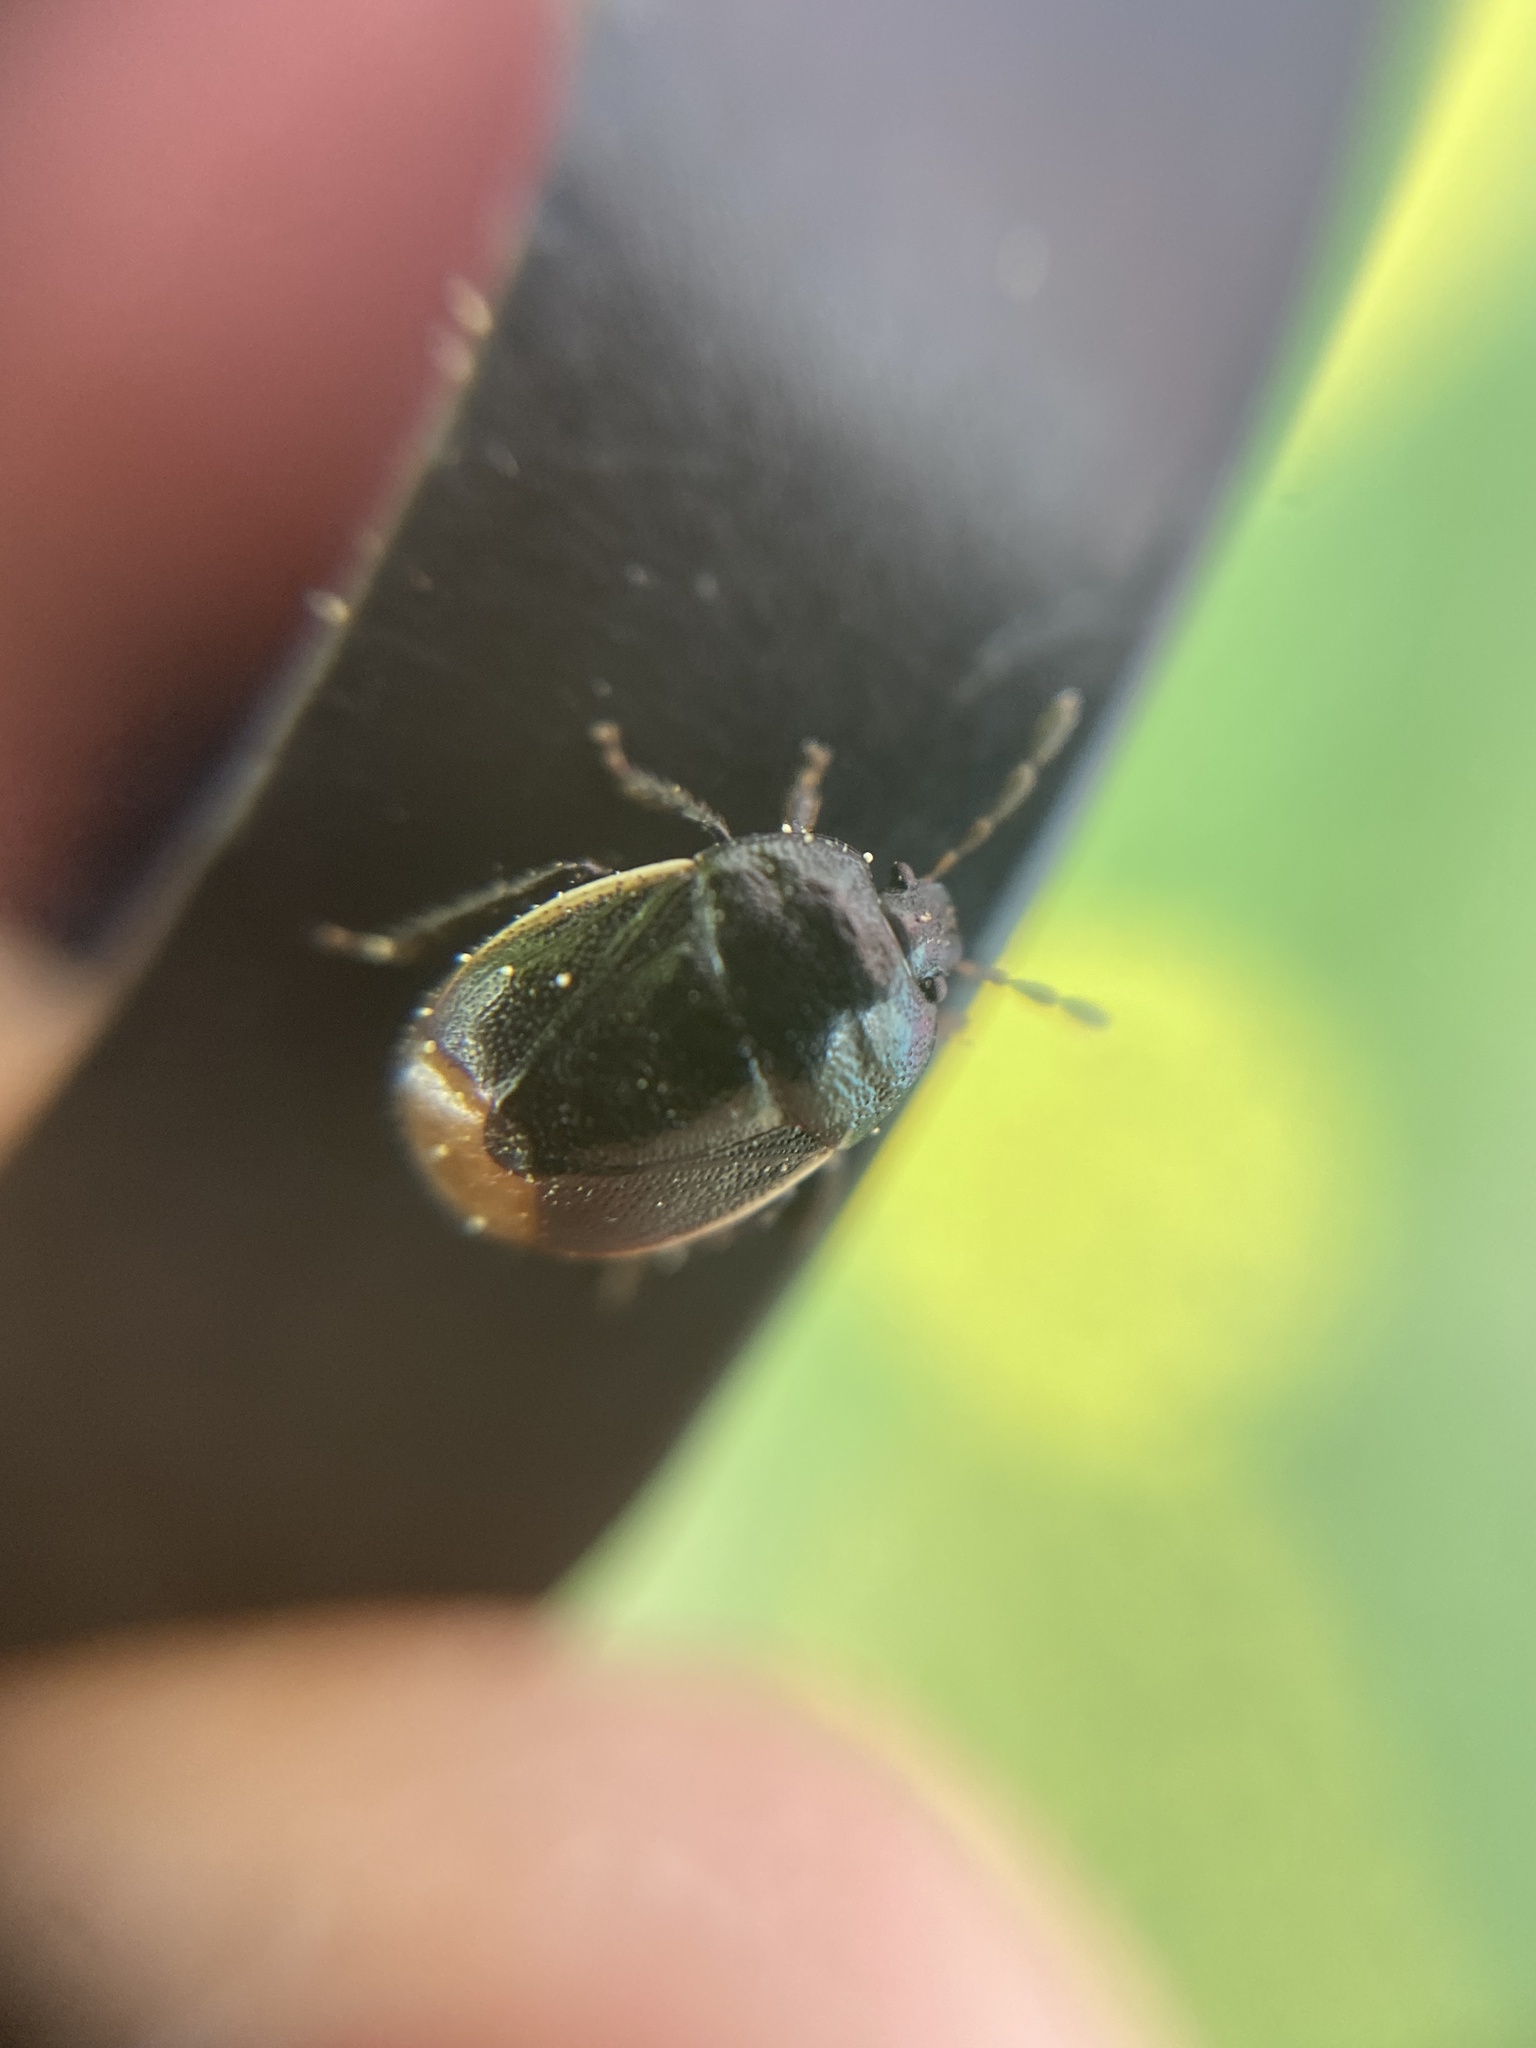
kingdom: Animalia
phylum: Arthropoda
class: Insecta
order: Hemiptera
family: Cydnidae
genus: Legnotus
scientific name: Legnotus limbosus
